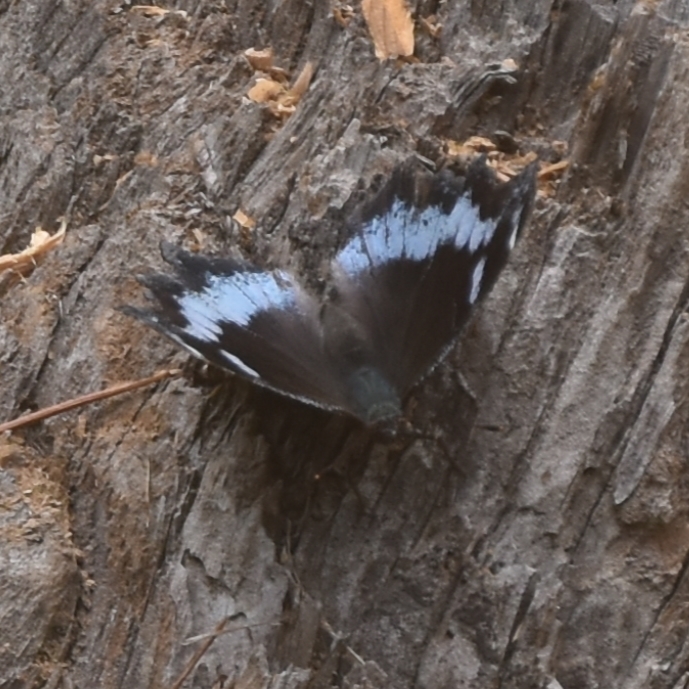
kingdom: Animalia
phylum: Arthropoda
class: Insecta
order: Lepidoptera
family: Nymphalidae
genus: Vanessa
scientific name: Vanessa Kaniska canace
